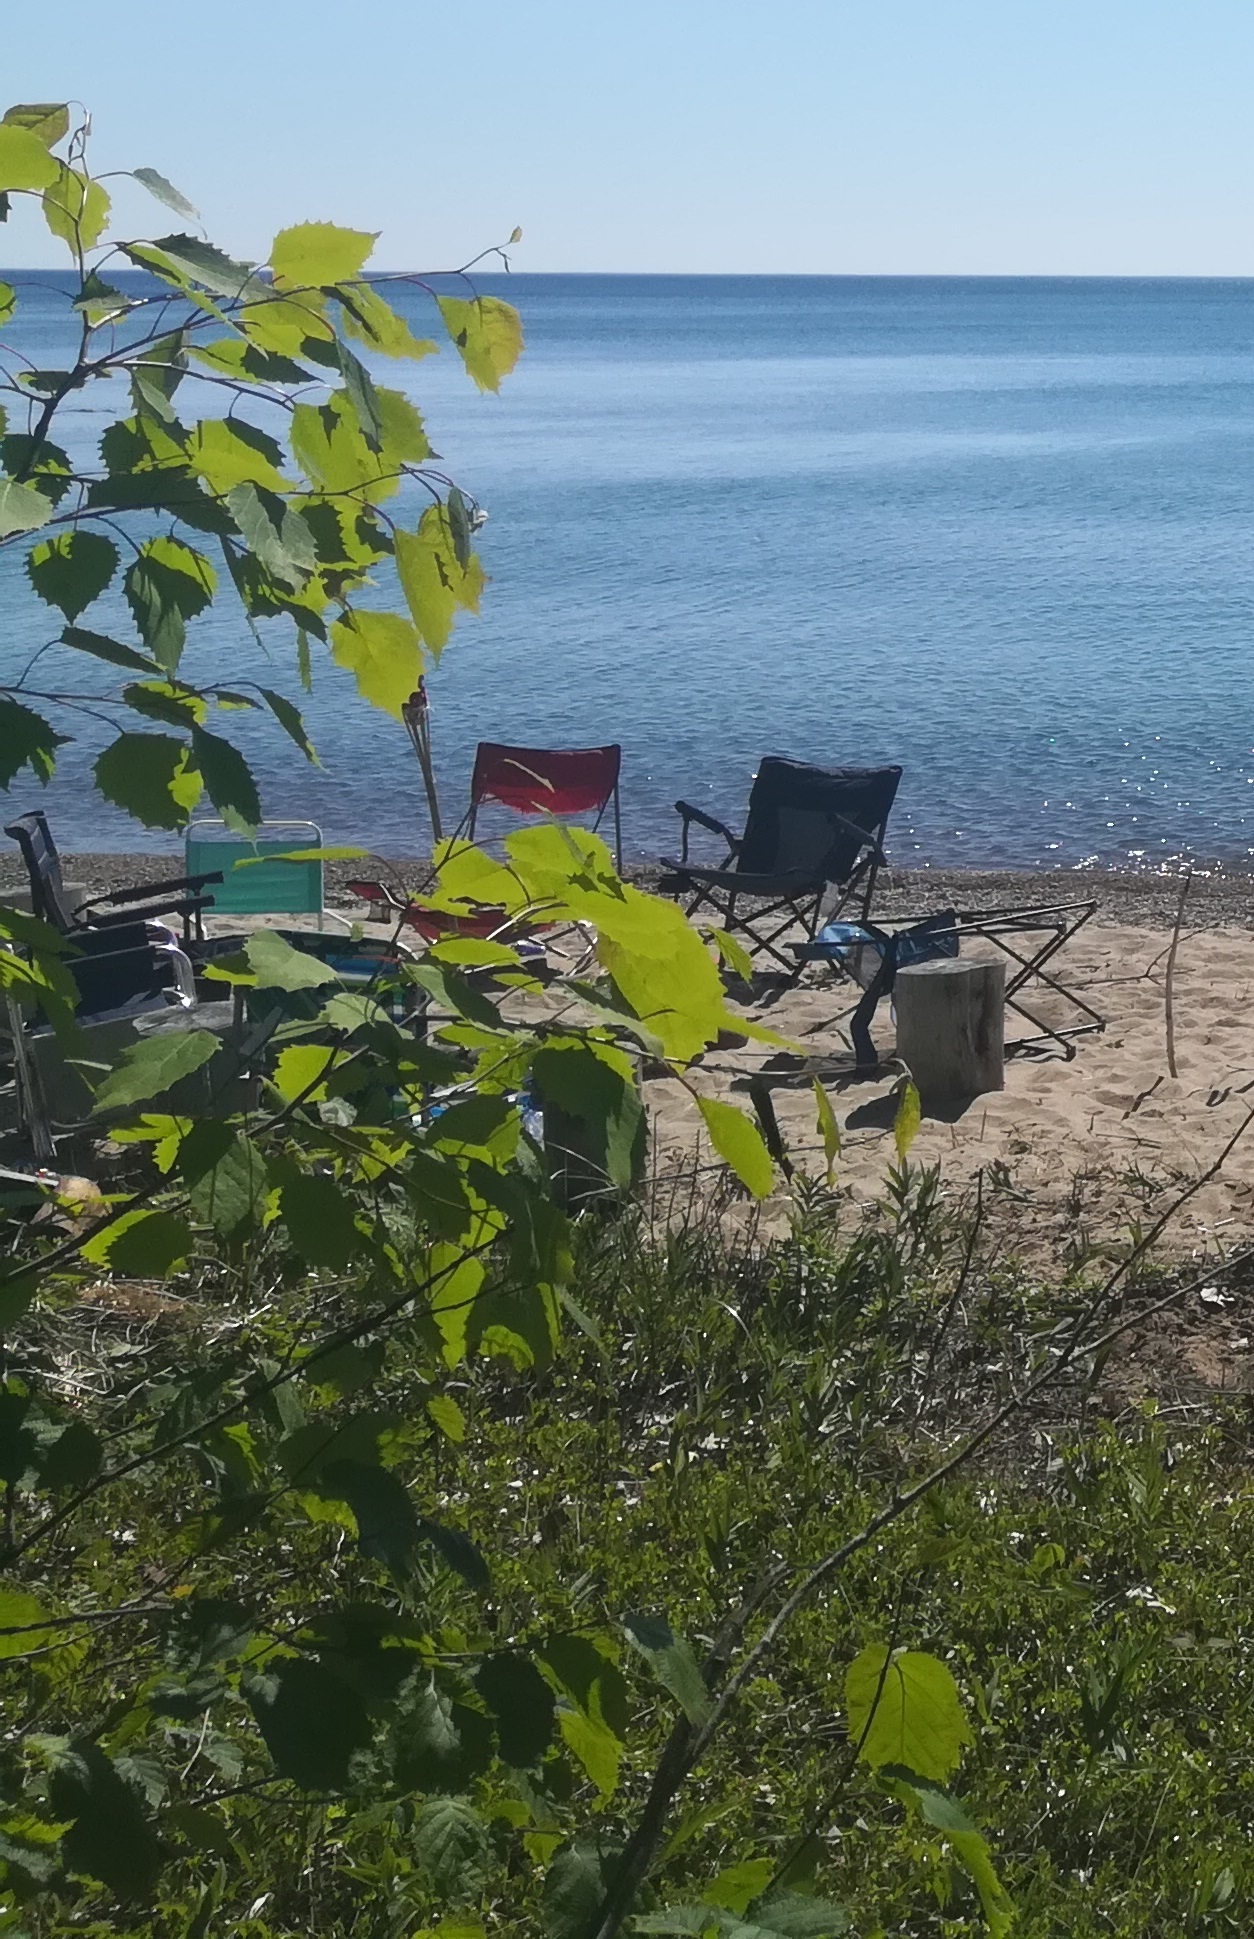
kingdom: Plantae
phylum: Tracheophyta
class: Magnoliopsida
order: Malpighiales
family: Salicaceae
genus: Populus
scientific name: Populus grandidentata
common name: Bigtooth aspen
